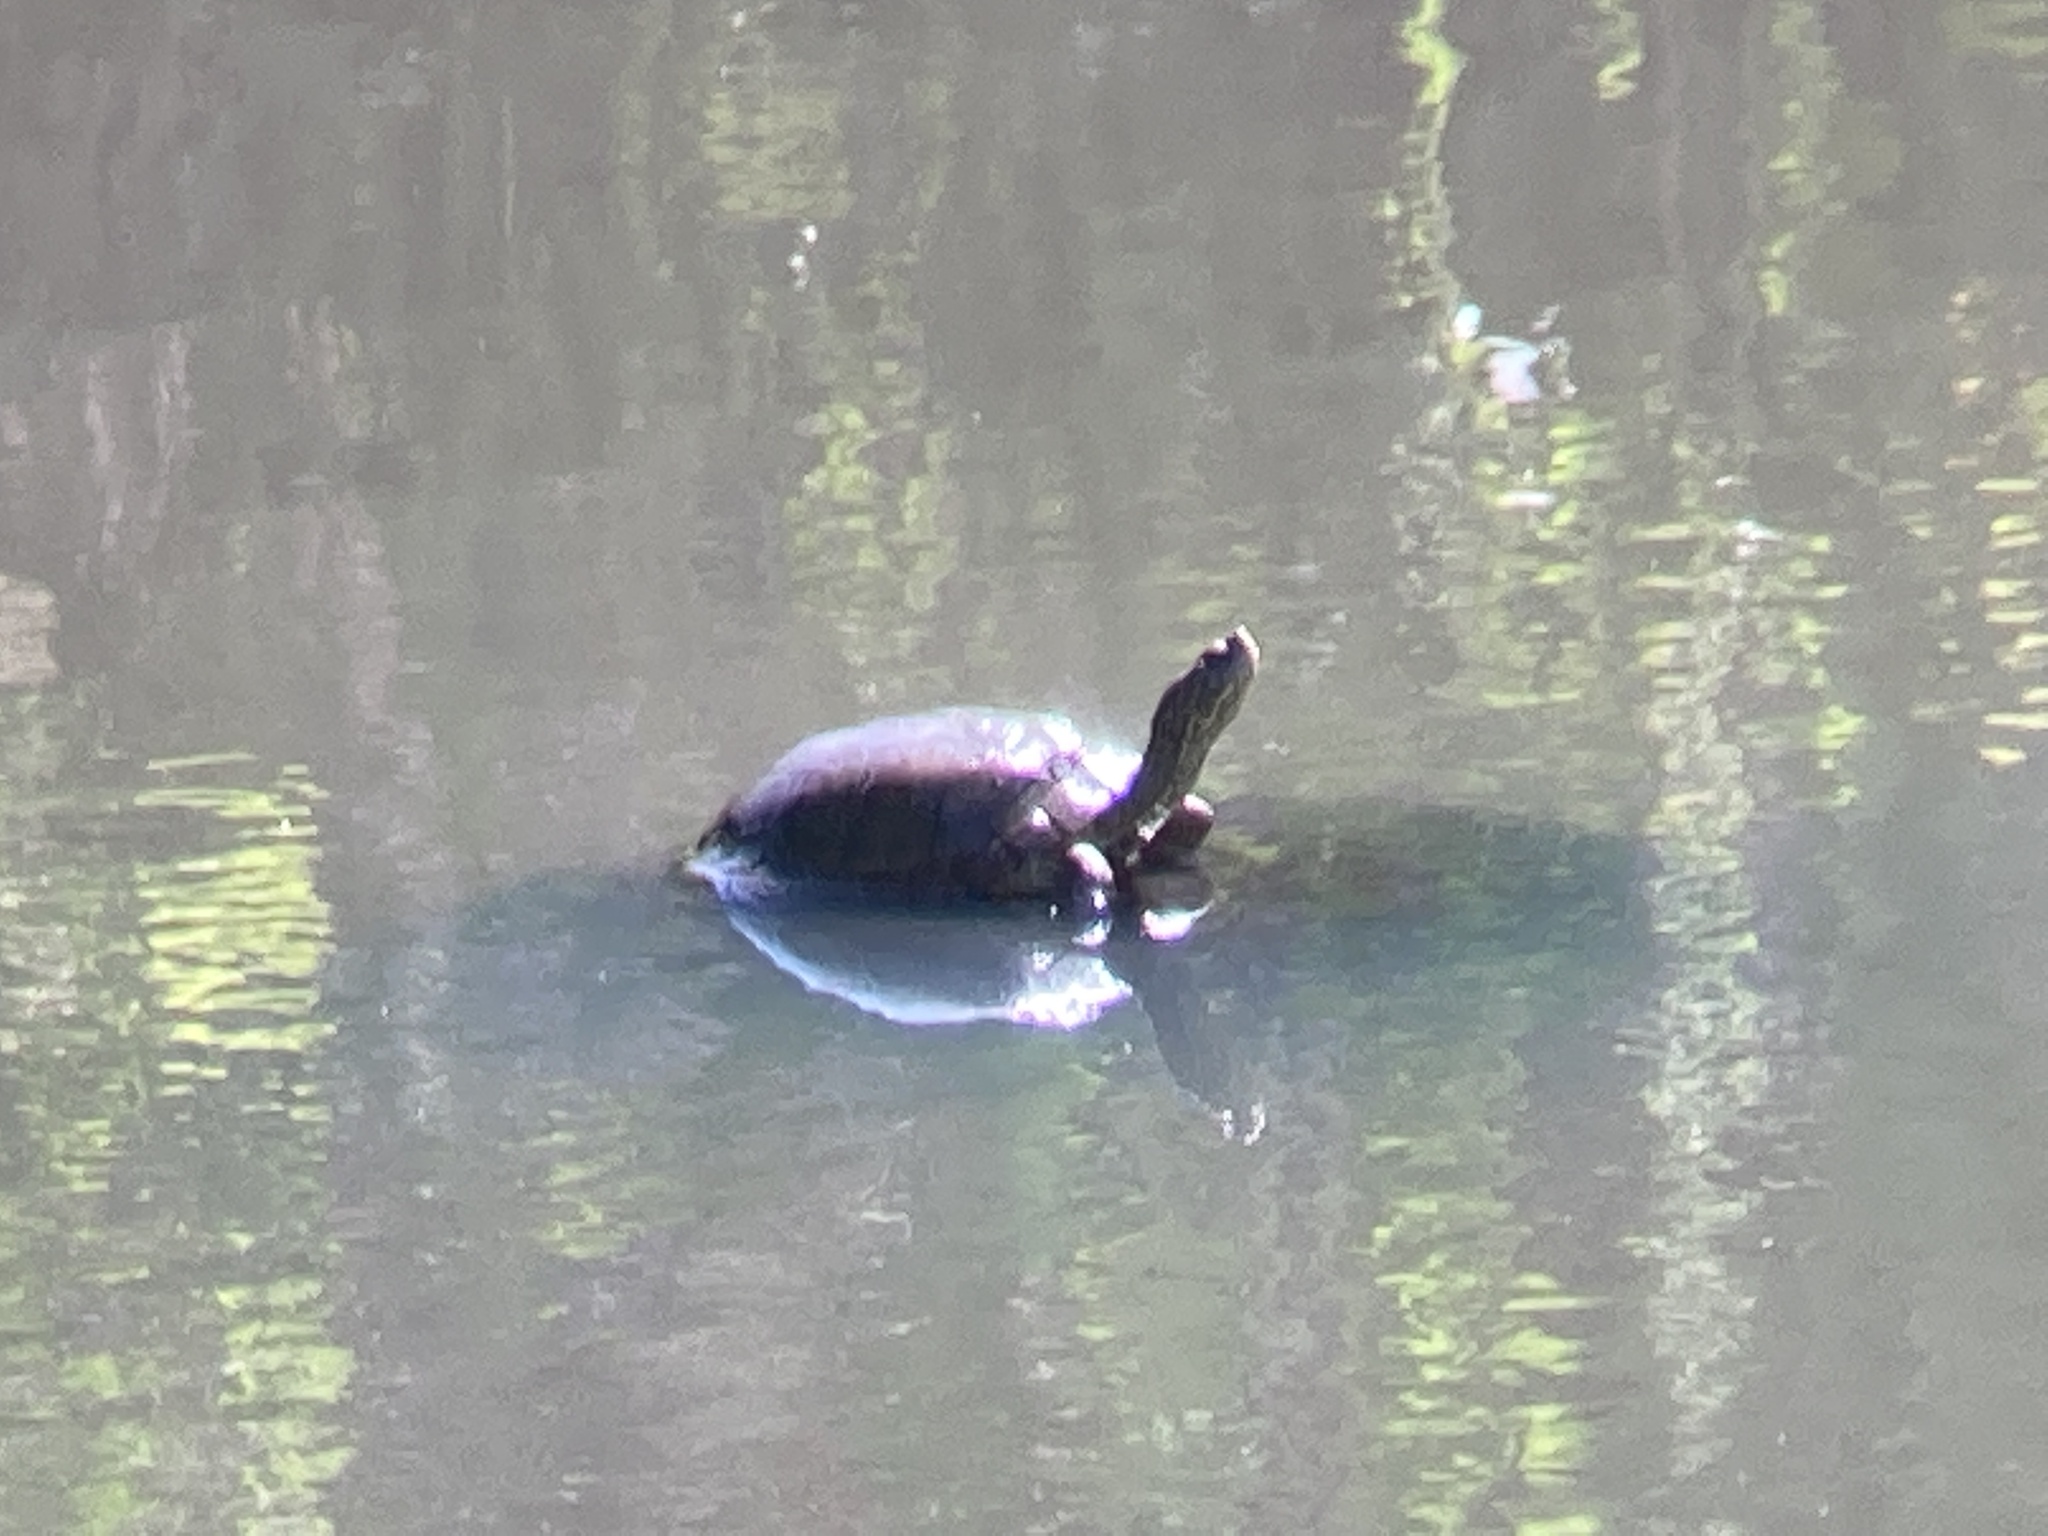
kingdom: Animalia
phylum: Chordata
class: Testudines
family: Emydidae
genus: Actinemys
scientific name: Actinemys marmorata
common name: Western pond turtle
